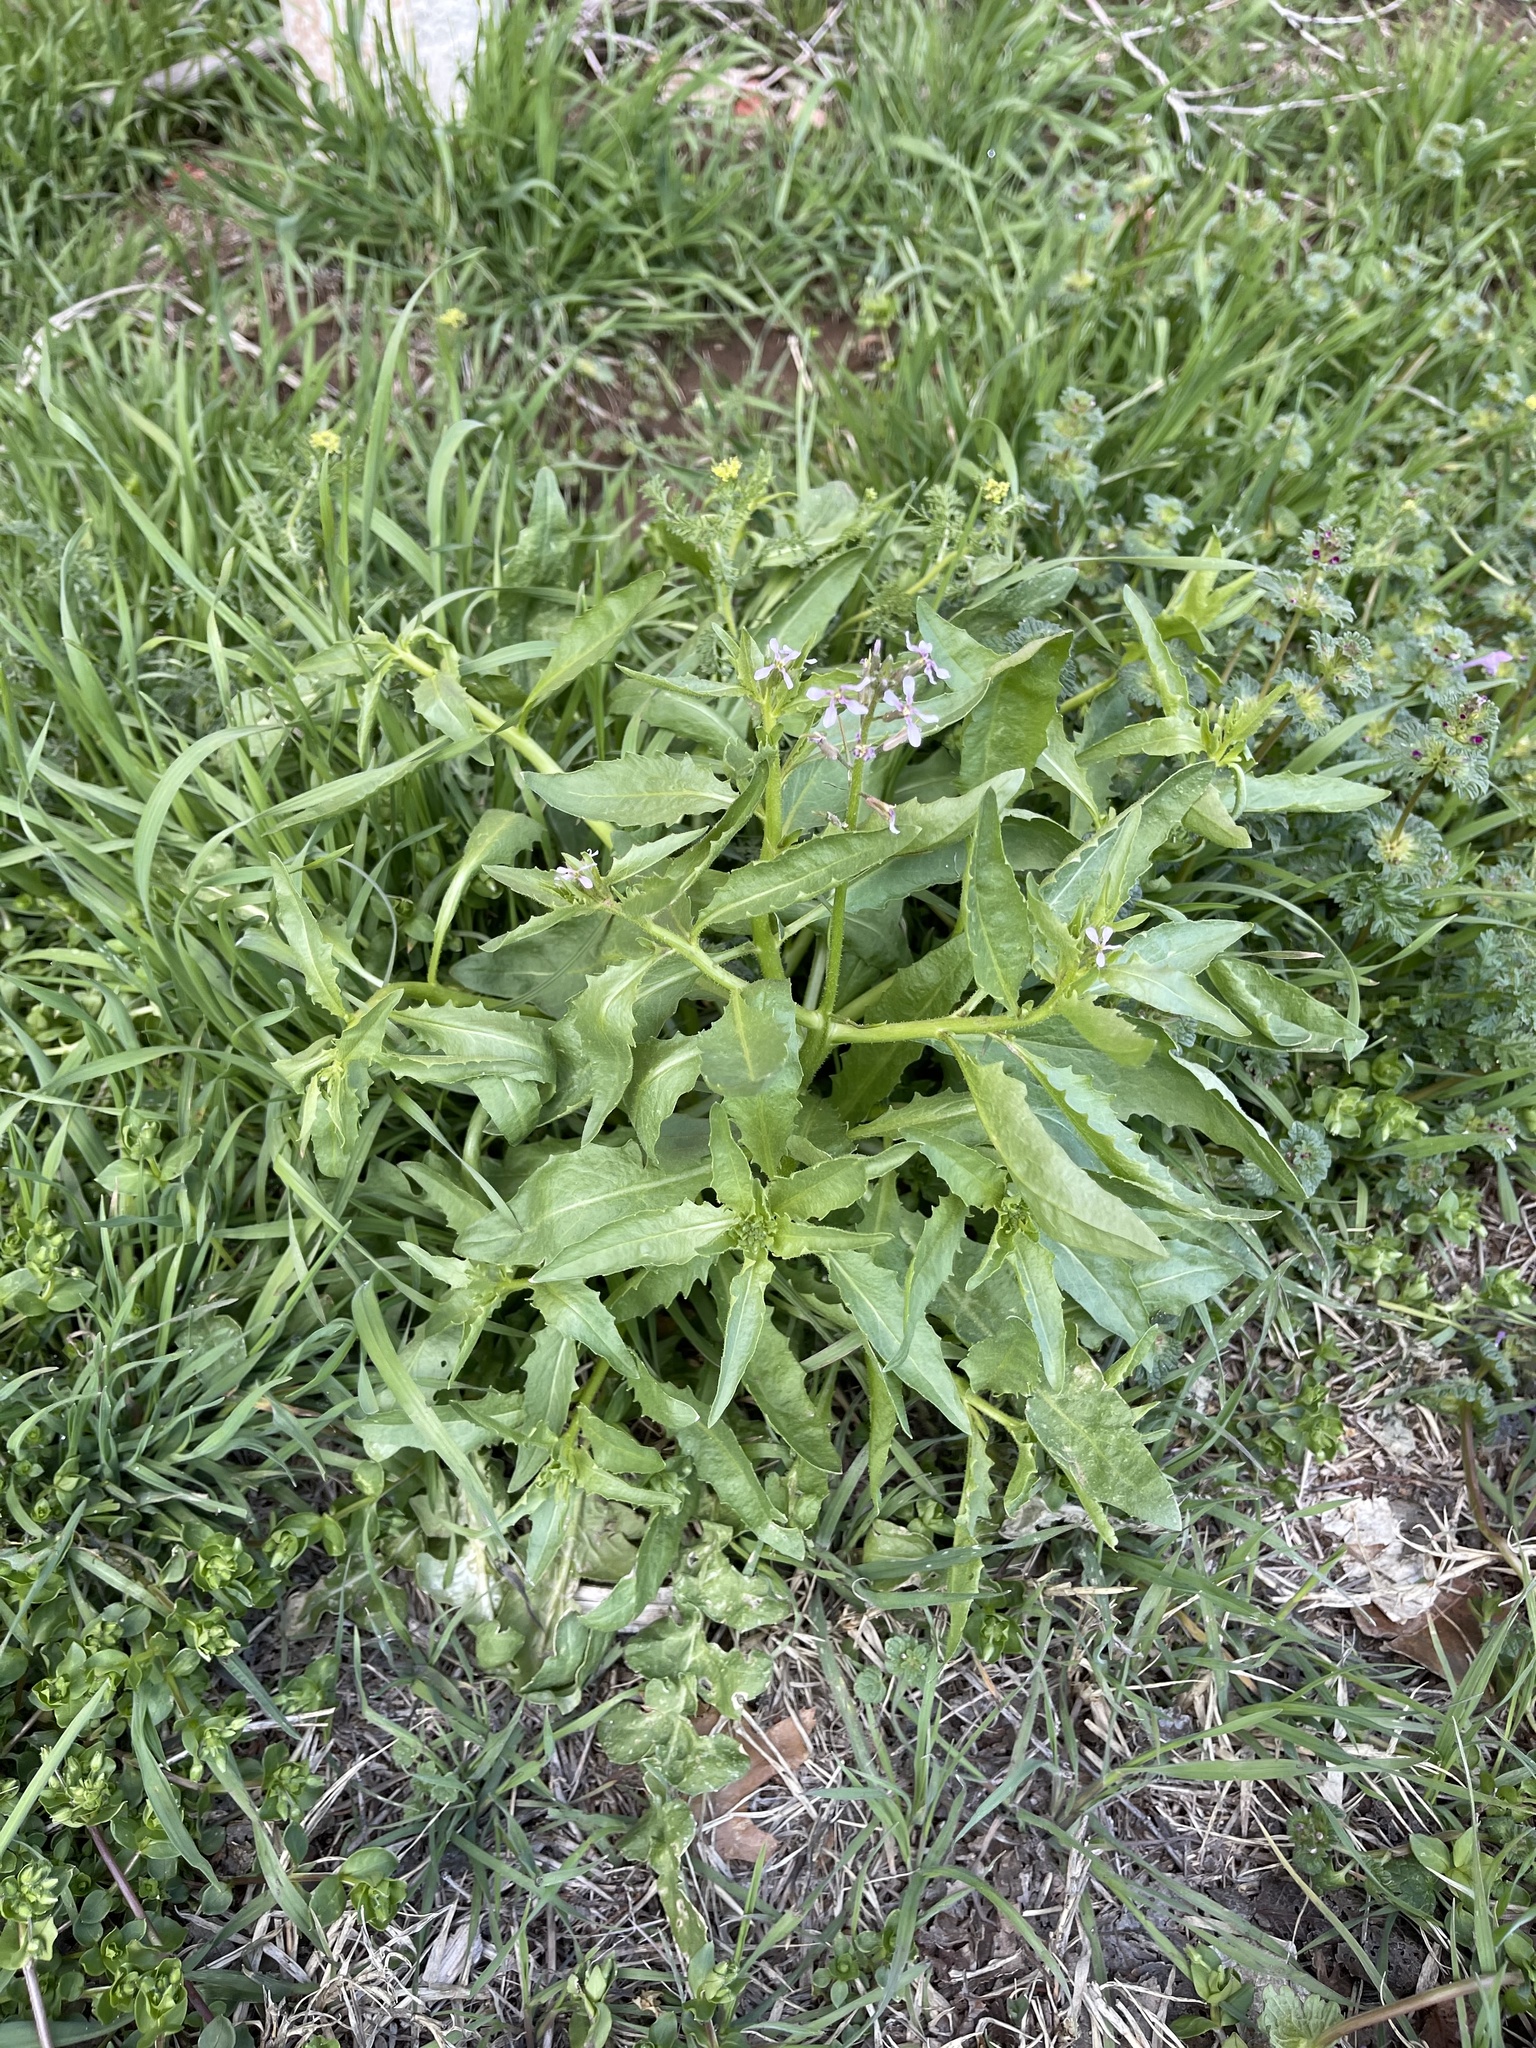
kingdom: Plantae
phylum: Tracheophyta
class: Magnoliopsida
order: Brassicales
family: Brassicaceae
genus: Chorispora
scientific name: Chorispora tenella
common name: Crossflower
